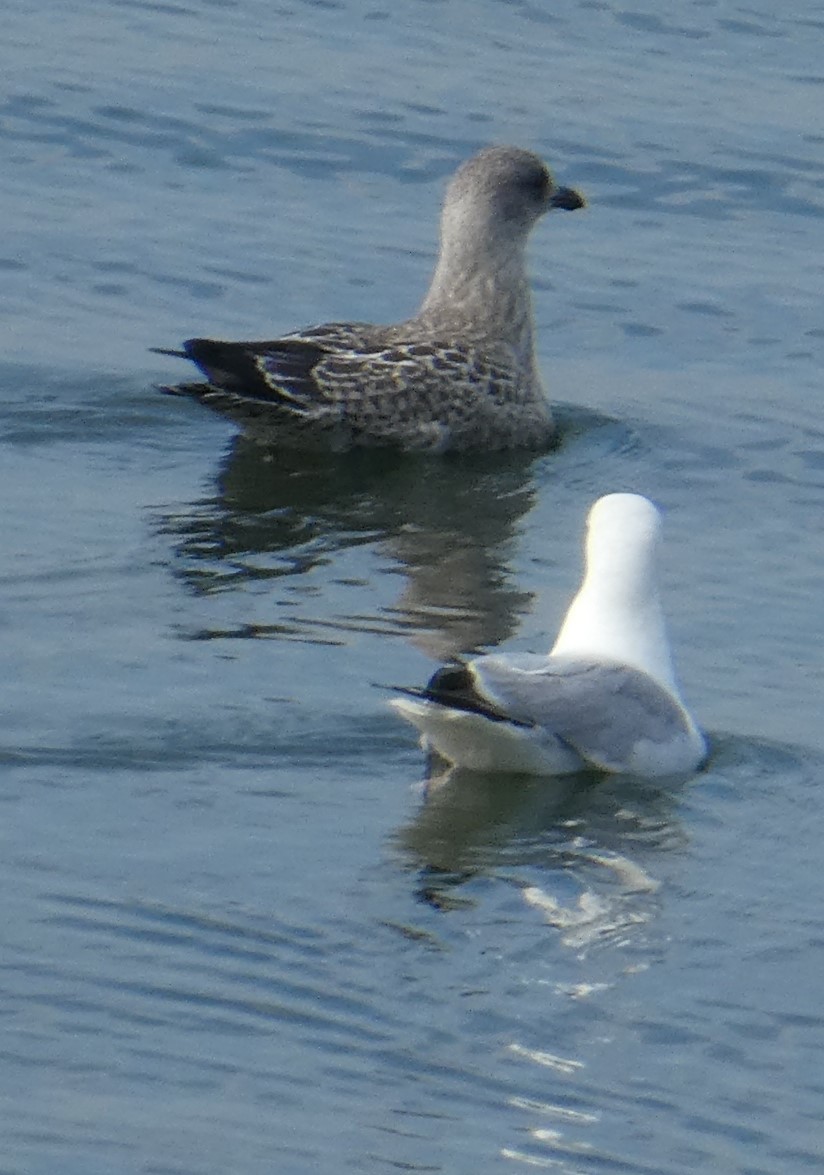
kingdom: Animalia
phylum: Chordata
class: Aves
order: Charadriiformes
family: Laridae
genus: Larus
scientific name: Larus argentatus
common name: Herring gull
